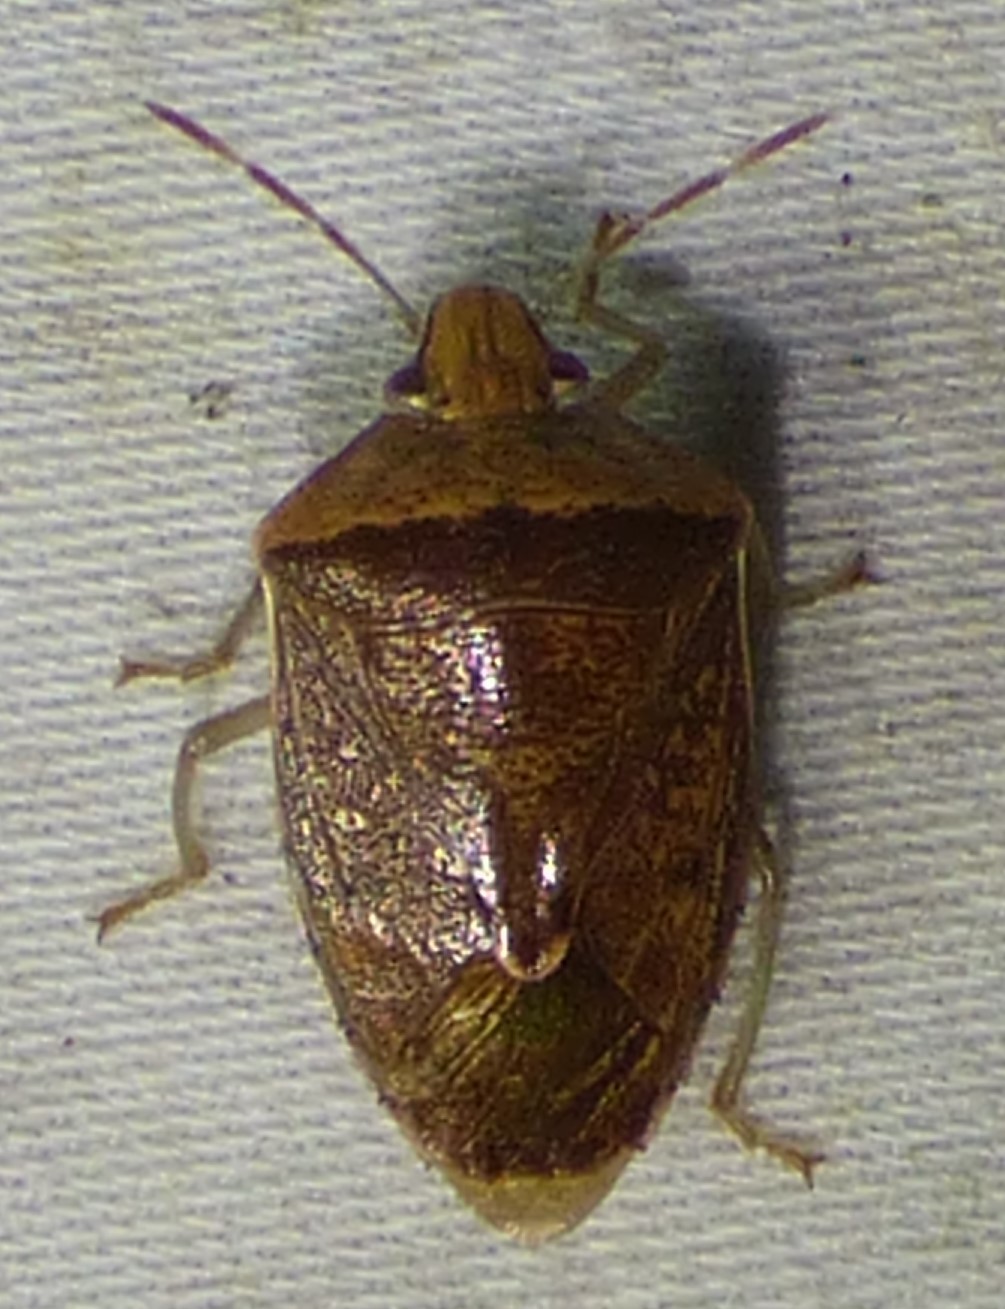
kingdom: Animalia
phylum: Arthropoda
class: Insecta
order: Hemiptera
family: Pentatomidae
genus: Banasa
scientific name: Banasa calva
